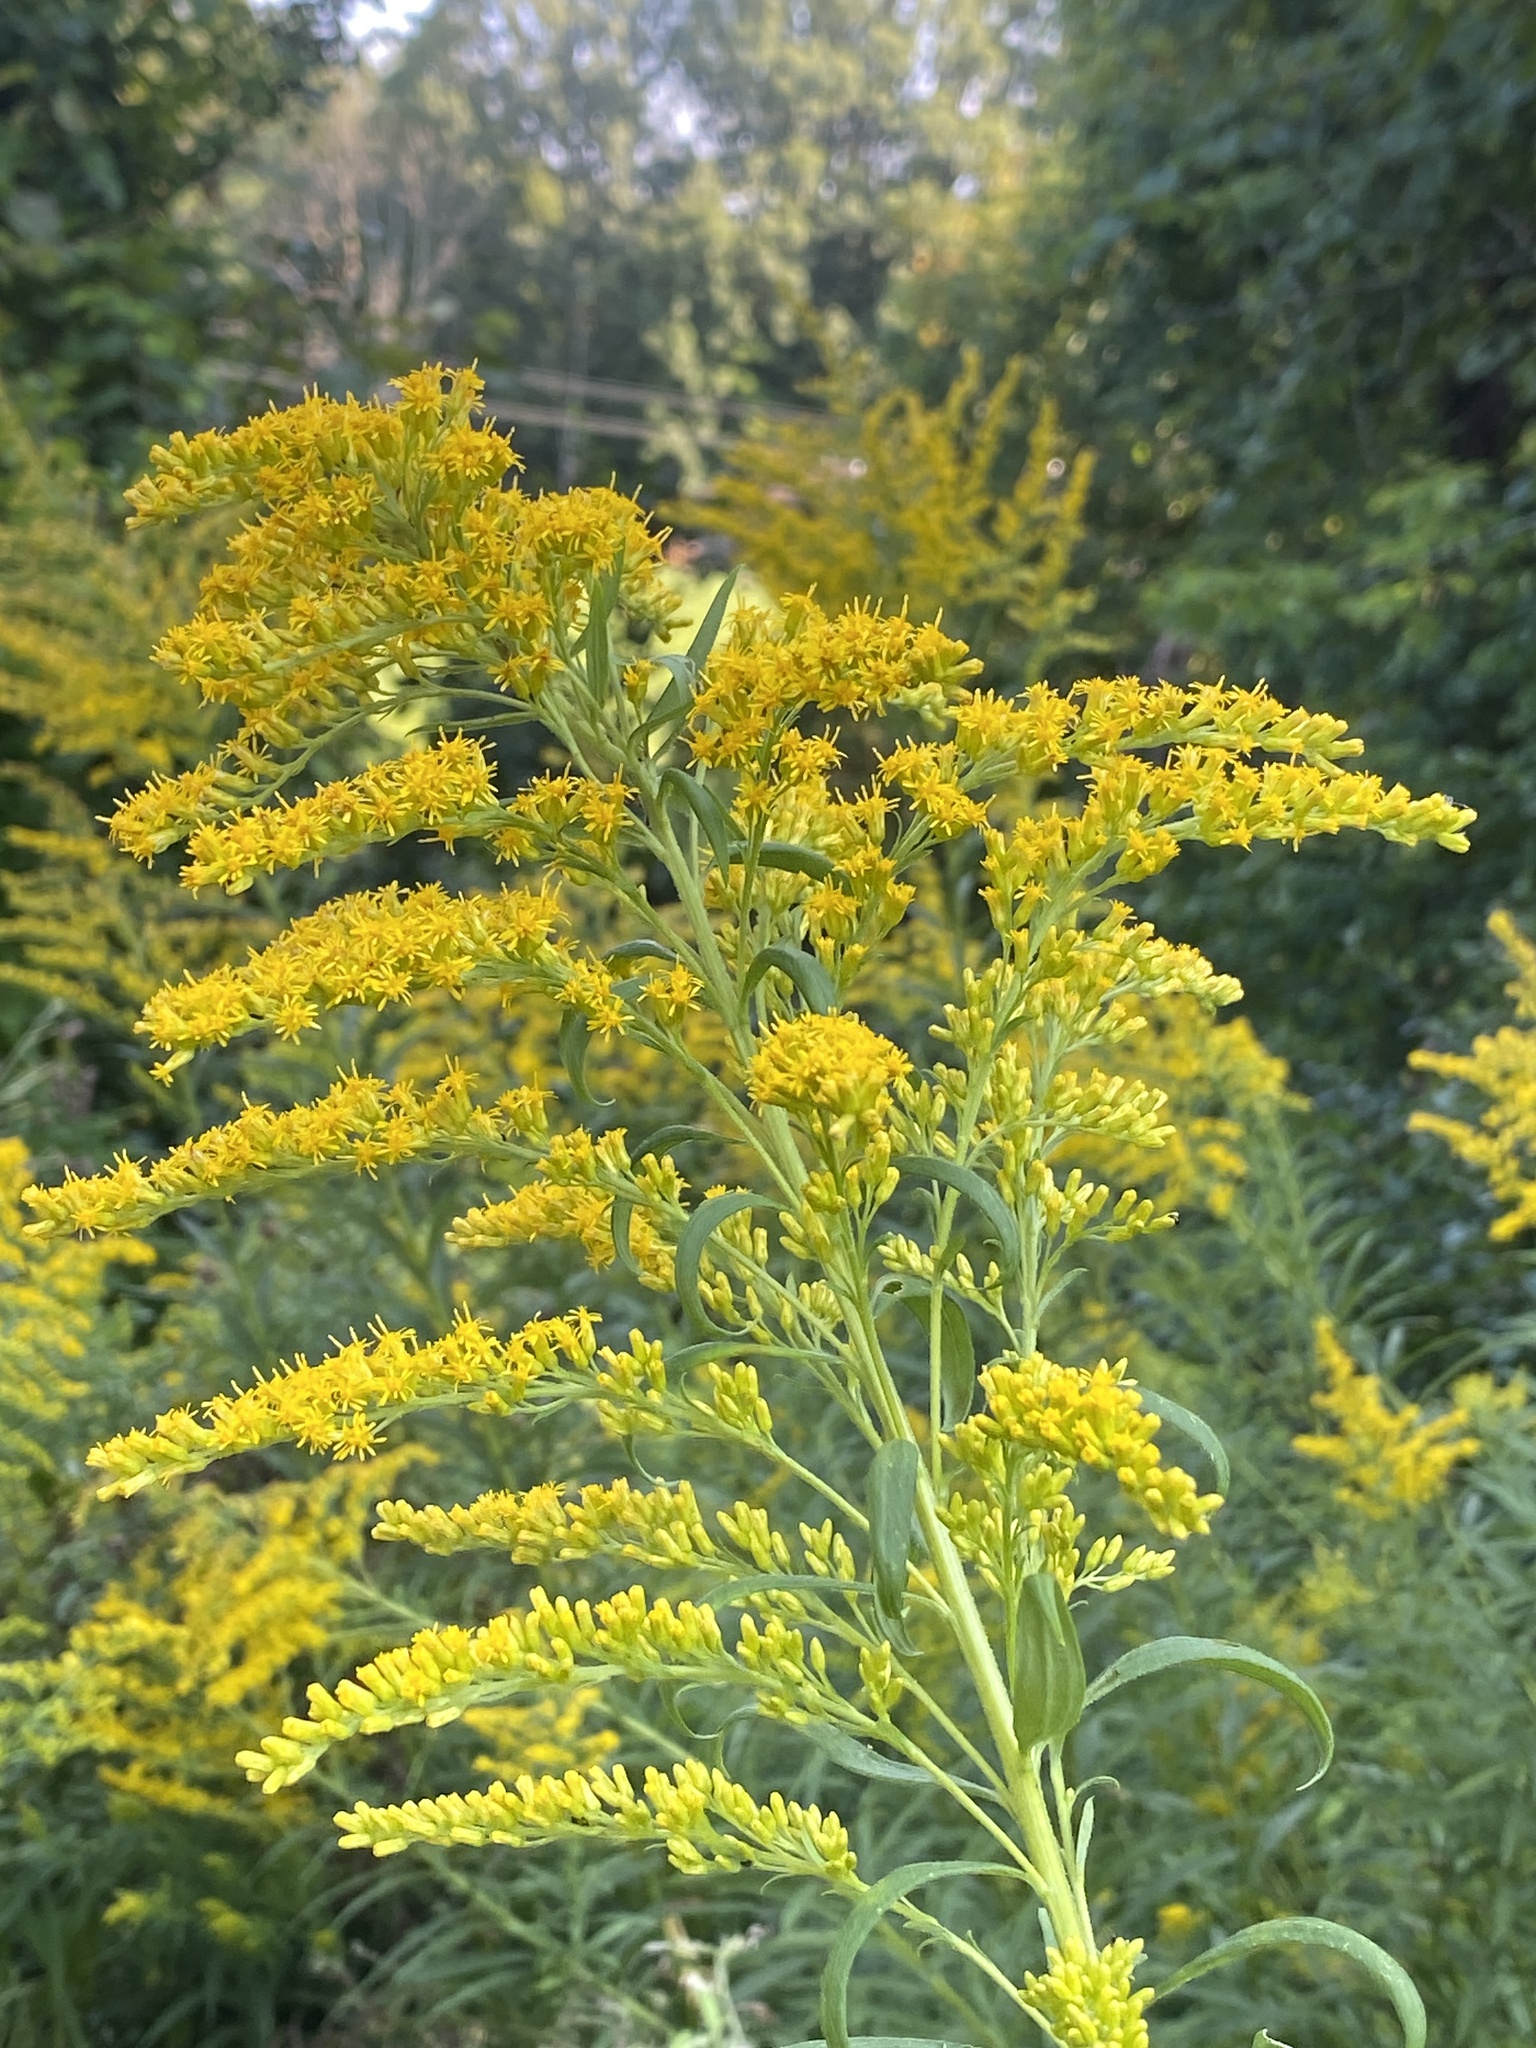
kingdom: Plantae
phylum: Tracheophyta
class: Magnoliopsida
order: Asterales
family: Asteraceae
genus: Solidago
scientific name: Solidago altissima
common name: Late goldenrod
